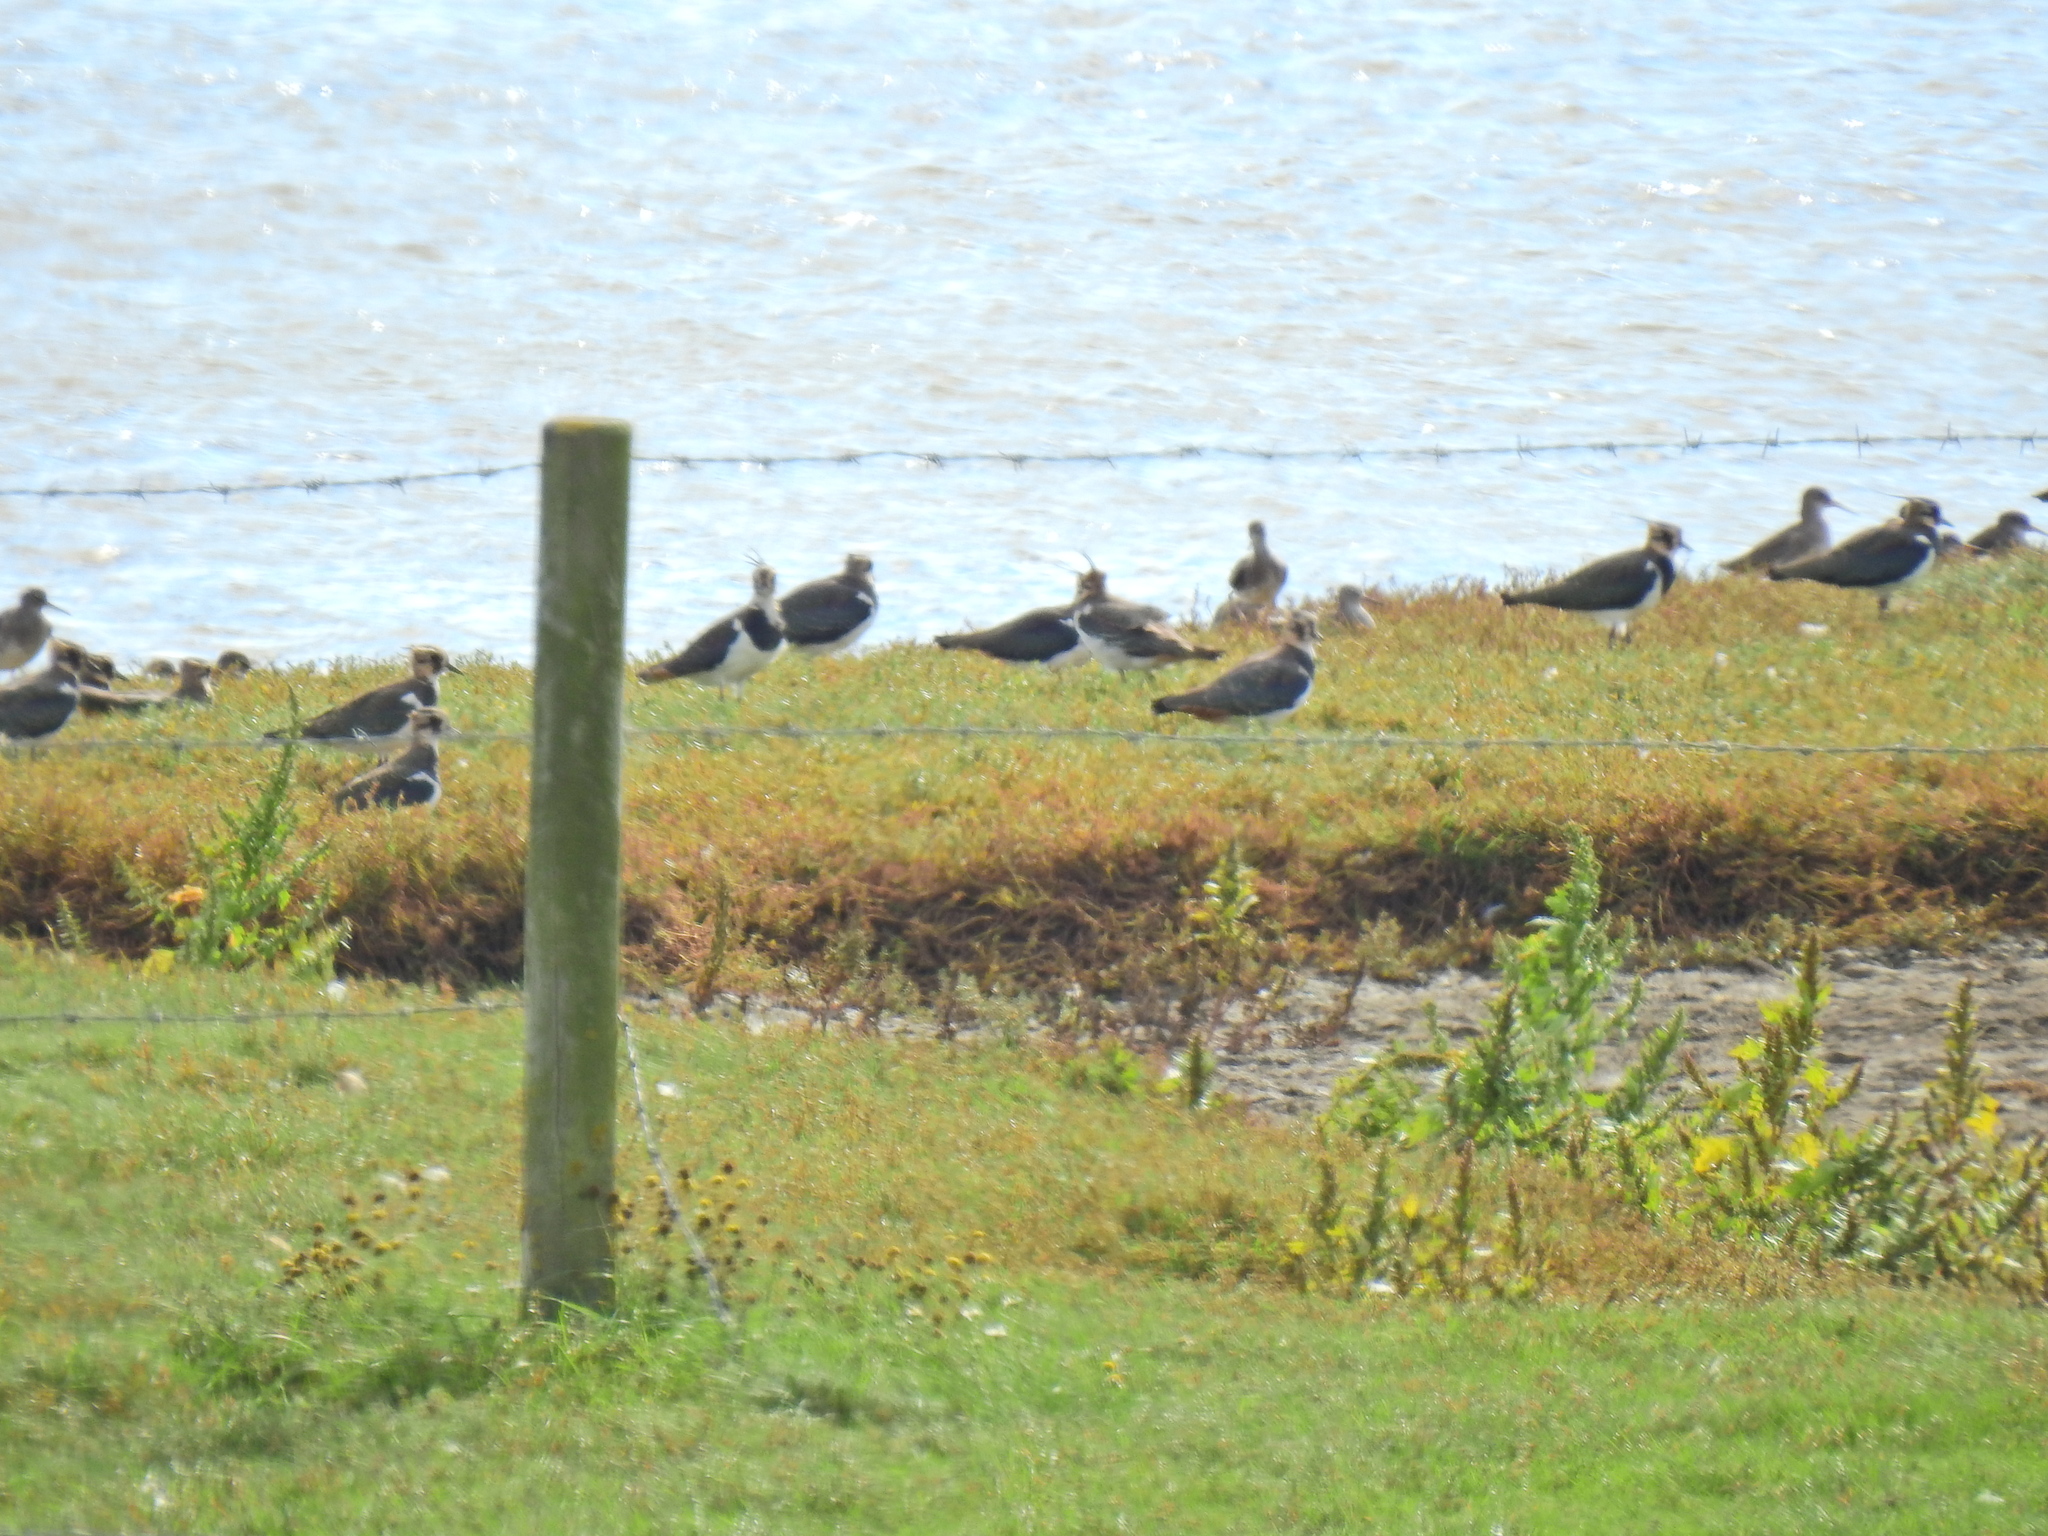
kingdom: Animalia
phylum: Chordata
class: Aves
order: Charadriiformes
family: Charadriidae
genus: Vanellus
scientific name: Vanellus vanellus
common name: Northern lapwing
